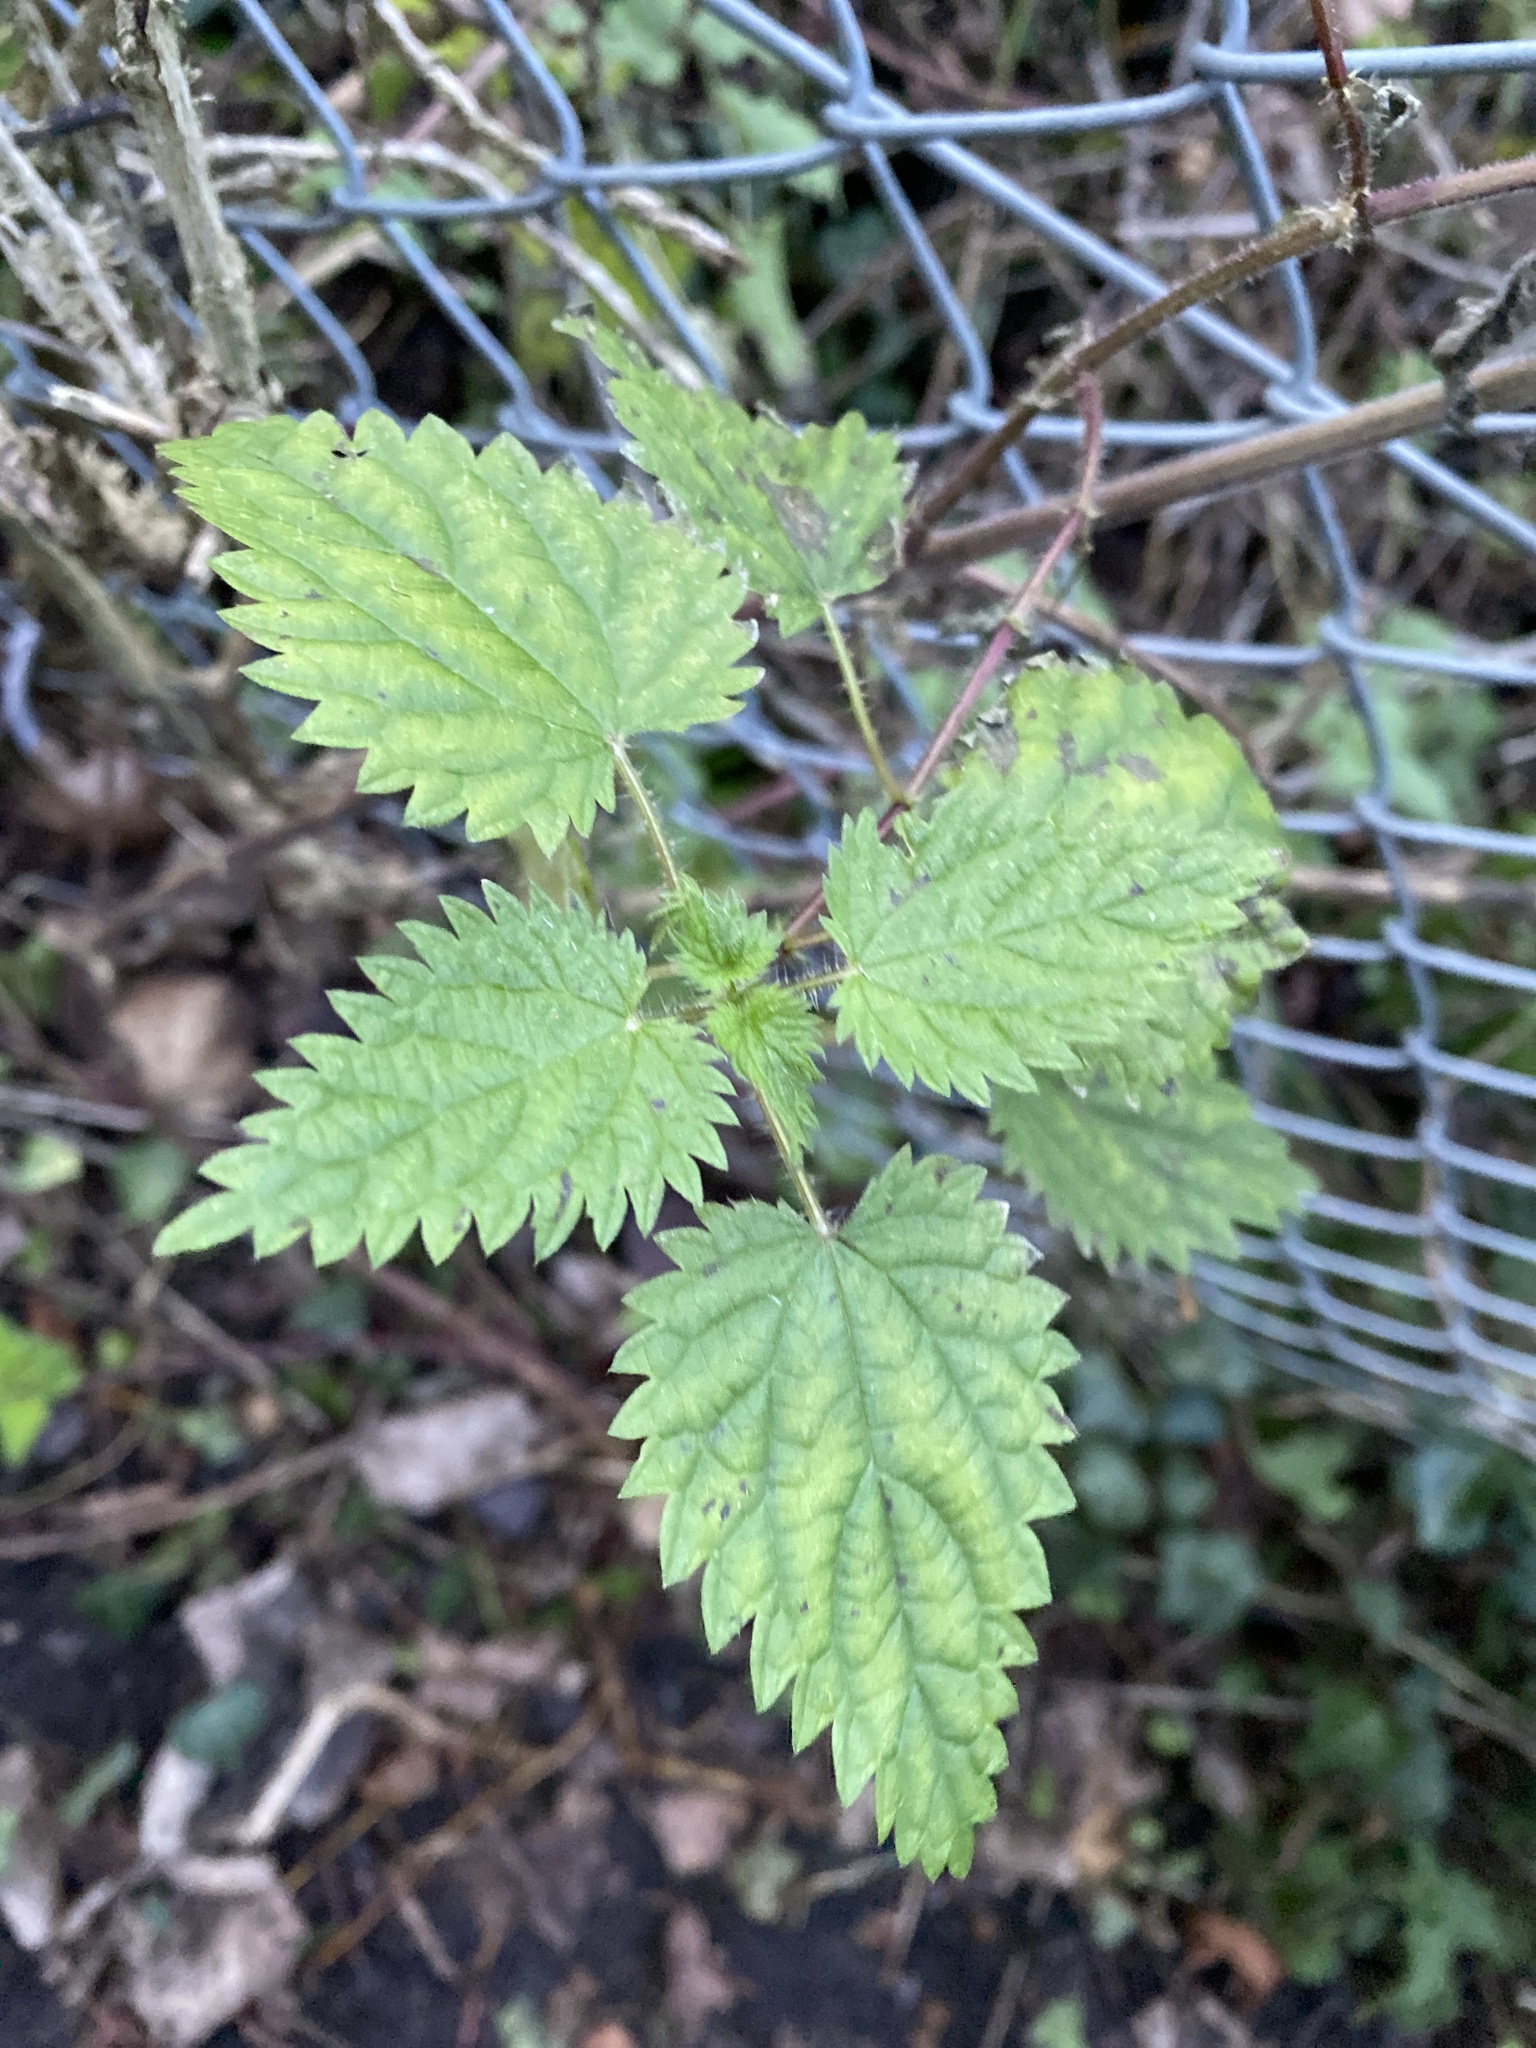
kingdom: Plantae
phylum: Tracheophyta
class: Magnoliopsida
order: Rosales
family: Urticaceae
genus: Urtica
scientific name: Urtica dioica
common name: Common nettle
